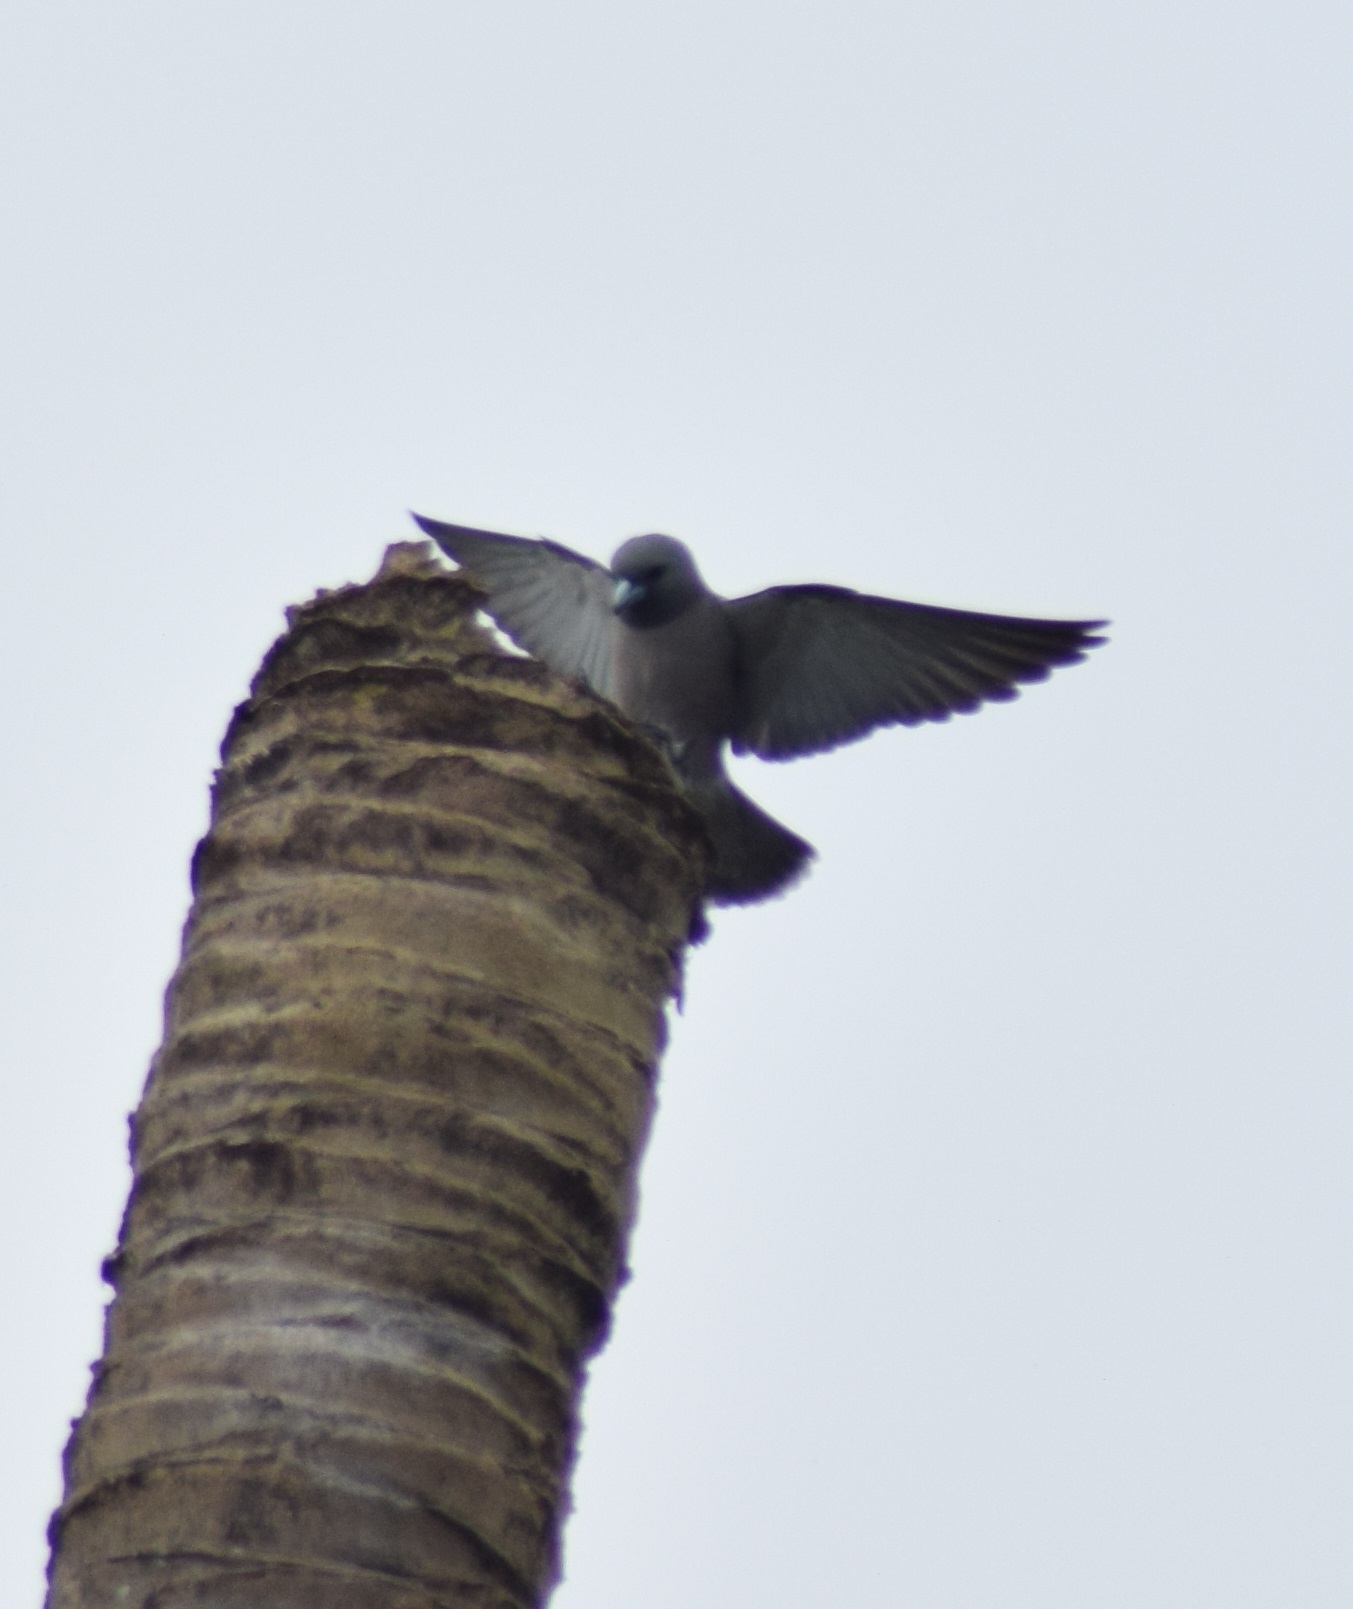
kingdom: Animalia
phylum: Chordata
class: Aves
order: Passeriformes
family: Artamidae
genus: Artamus
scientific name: Artamus fuscus
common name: Ashy woodswallow
